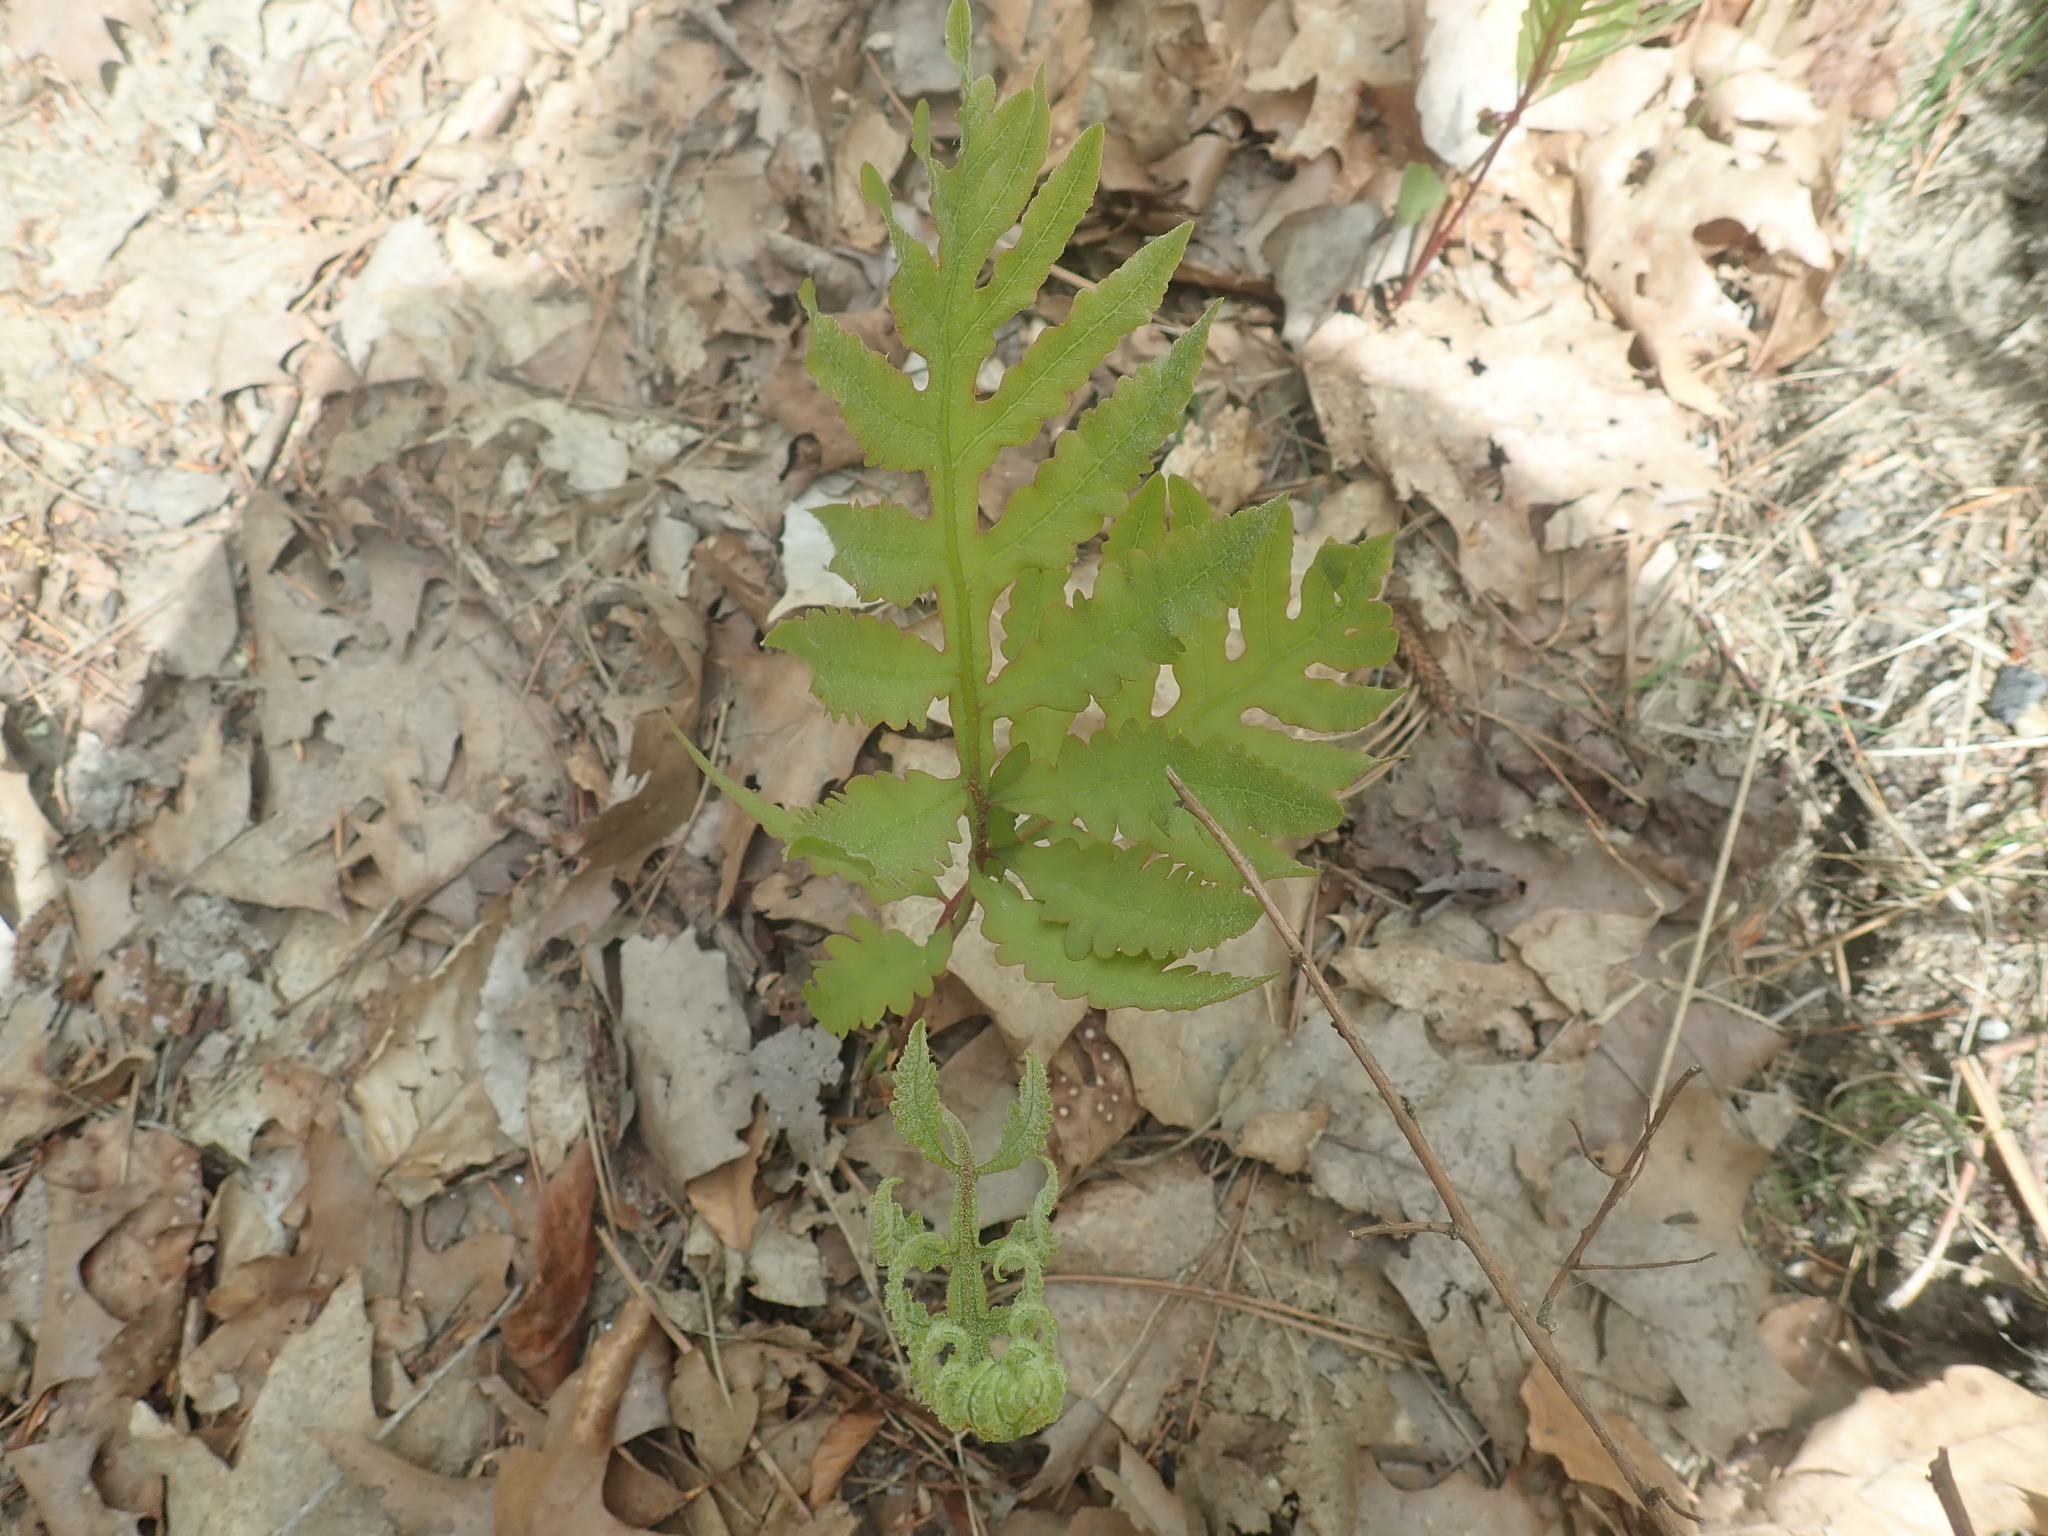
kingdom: Plantae
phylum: Tracheophyta
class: Polypodiopsida
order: Polypodiales
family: Onocleaceae
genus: Onoclea
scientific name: Onoclea sensibilis
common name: Sensitive fern
